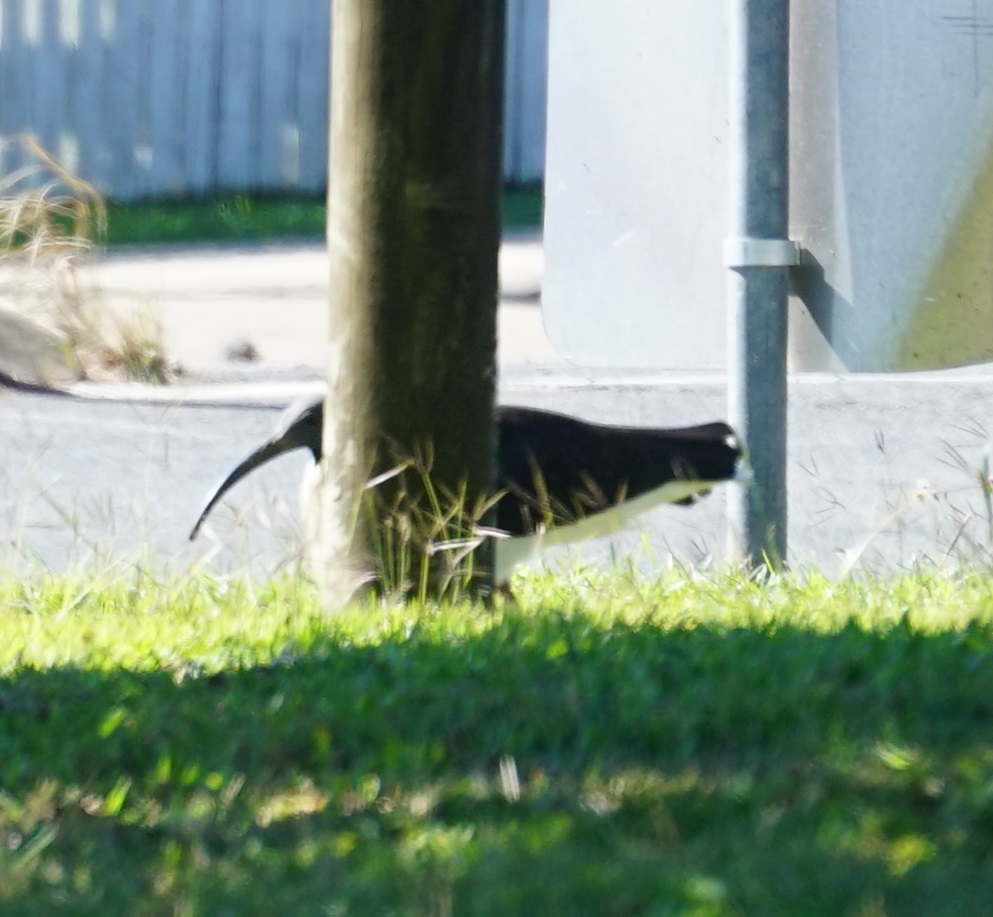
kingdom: Animalia
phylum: Chordata
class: Aves
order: Pelecaniformes
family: Threskiornithidae
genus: Threskiornis
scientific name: Threskiornis spinicollis
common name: Straw-necked ibis
